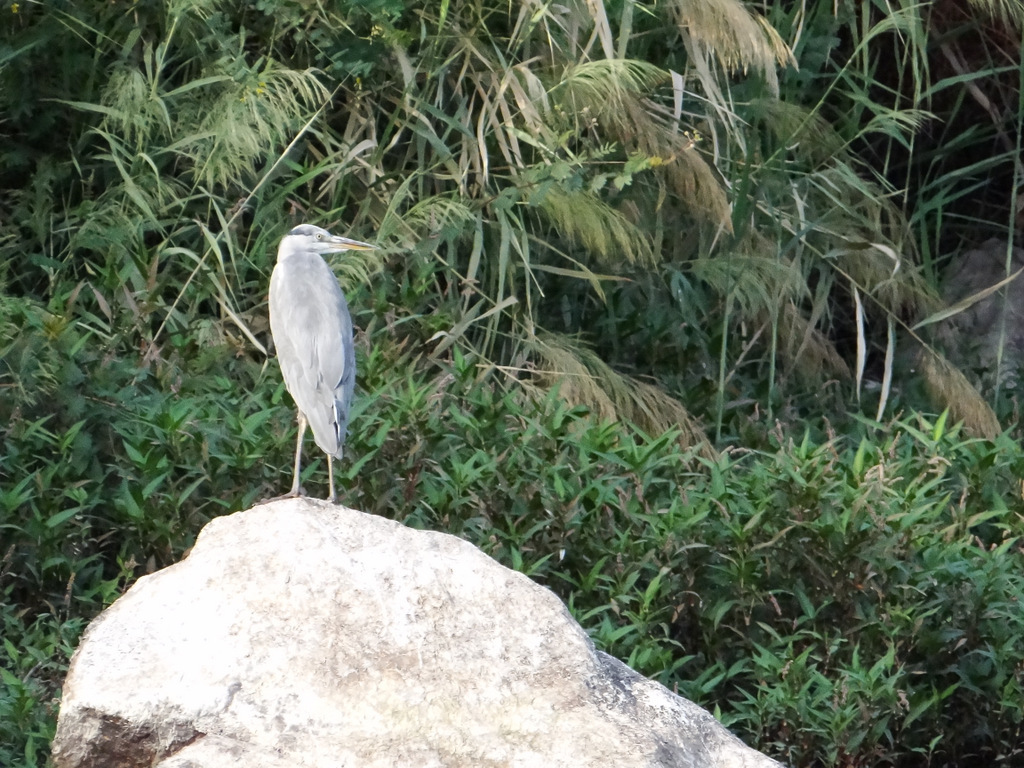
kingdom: Animalia
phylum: Chordata
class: Aves
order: Pelecaniformes
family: Ardeidae
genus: Ardea
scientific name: Ardea cinerea
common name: Grey heron
